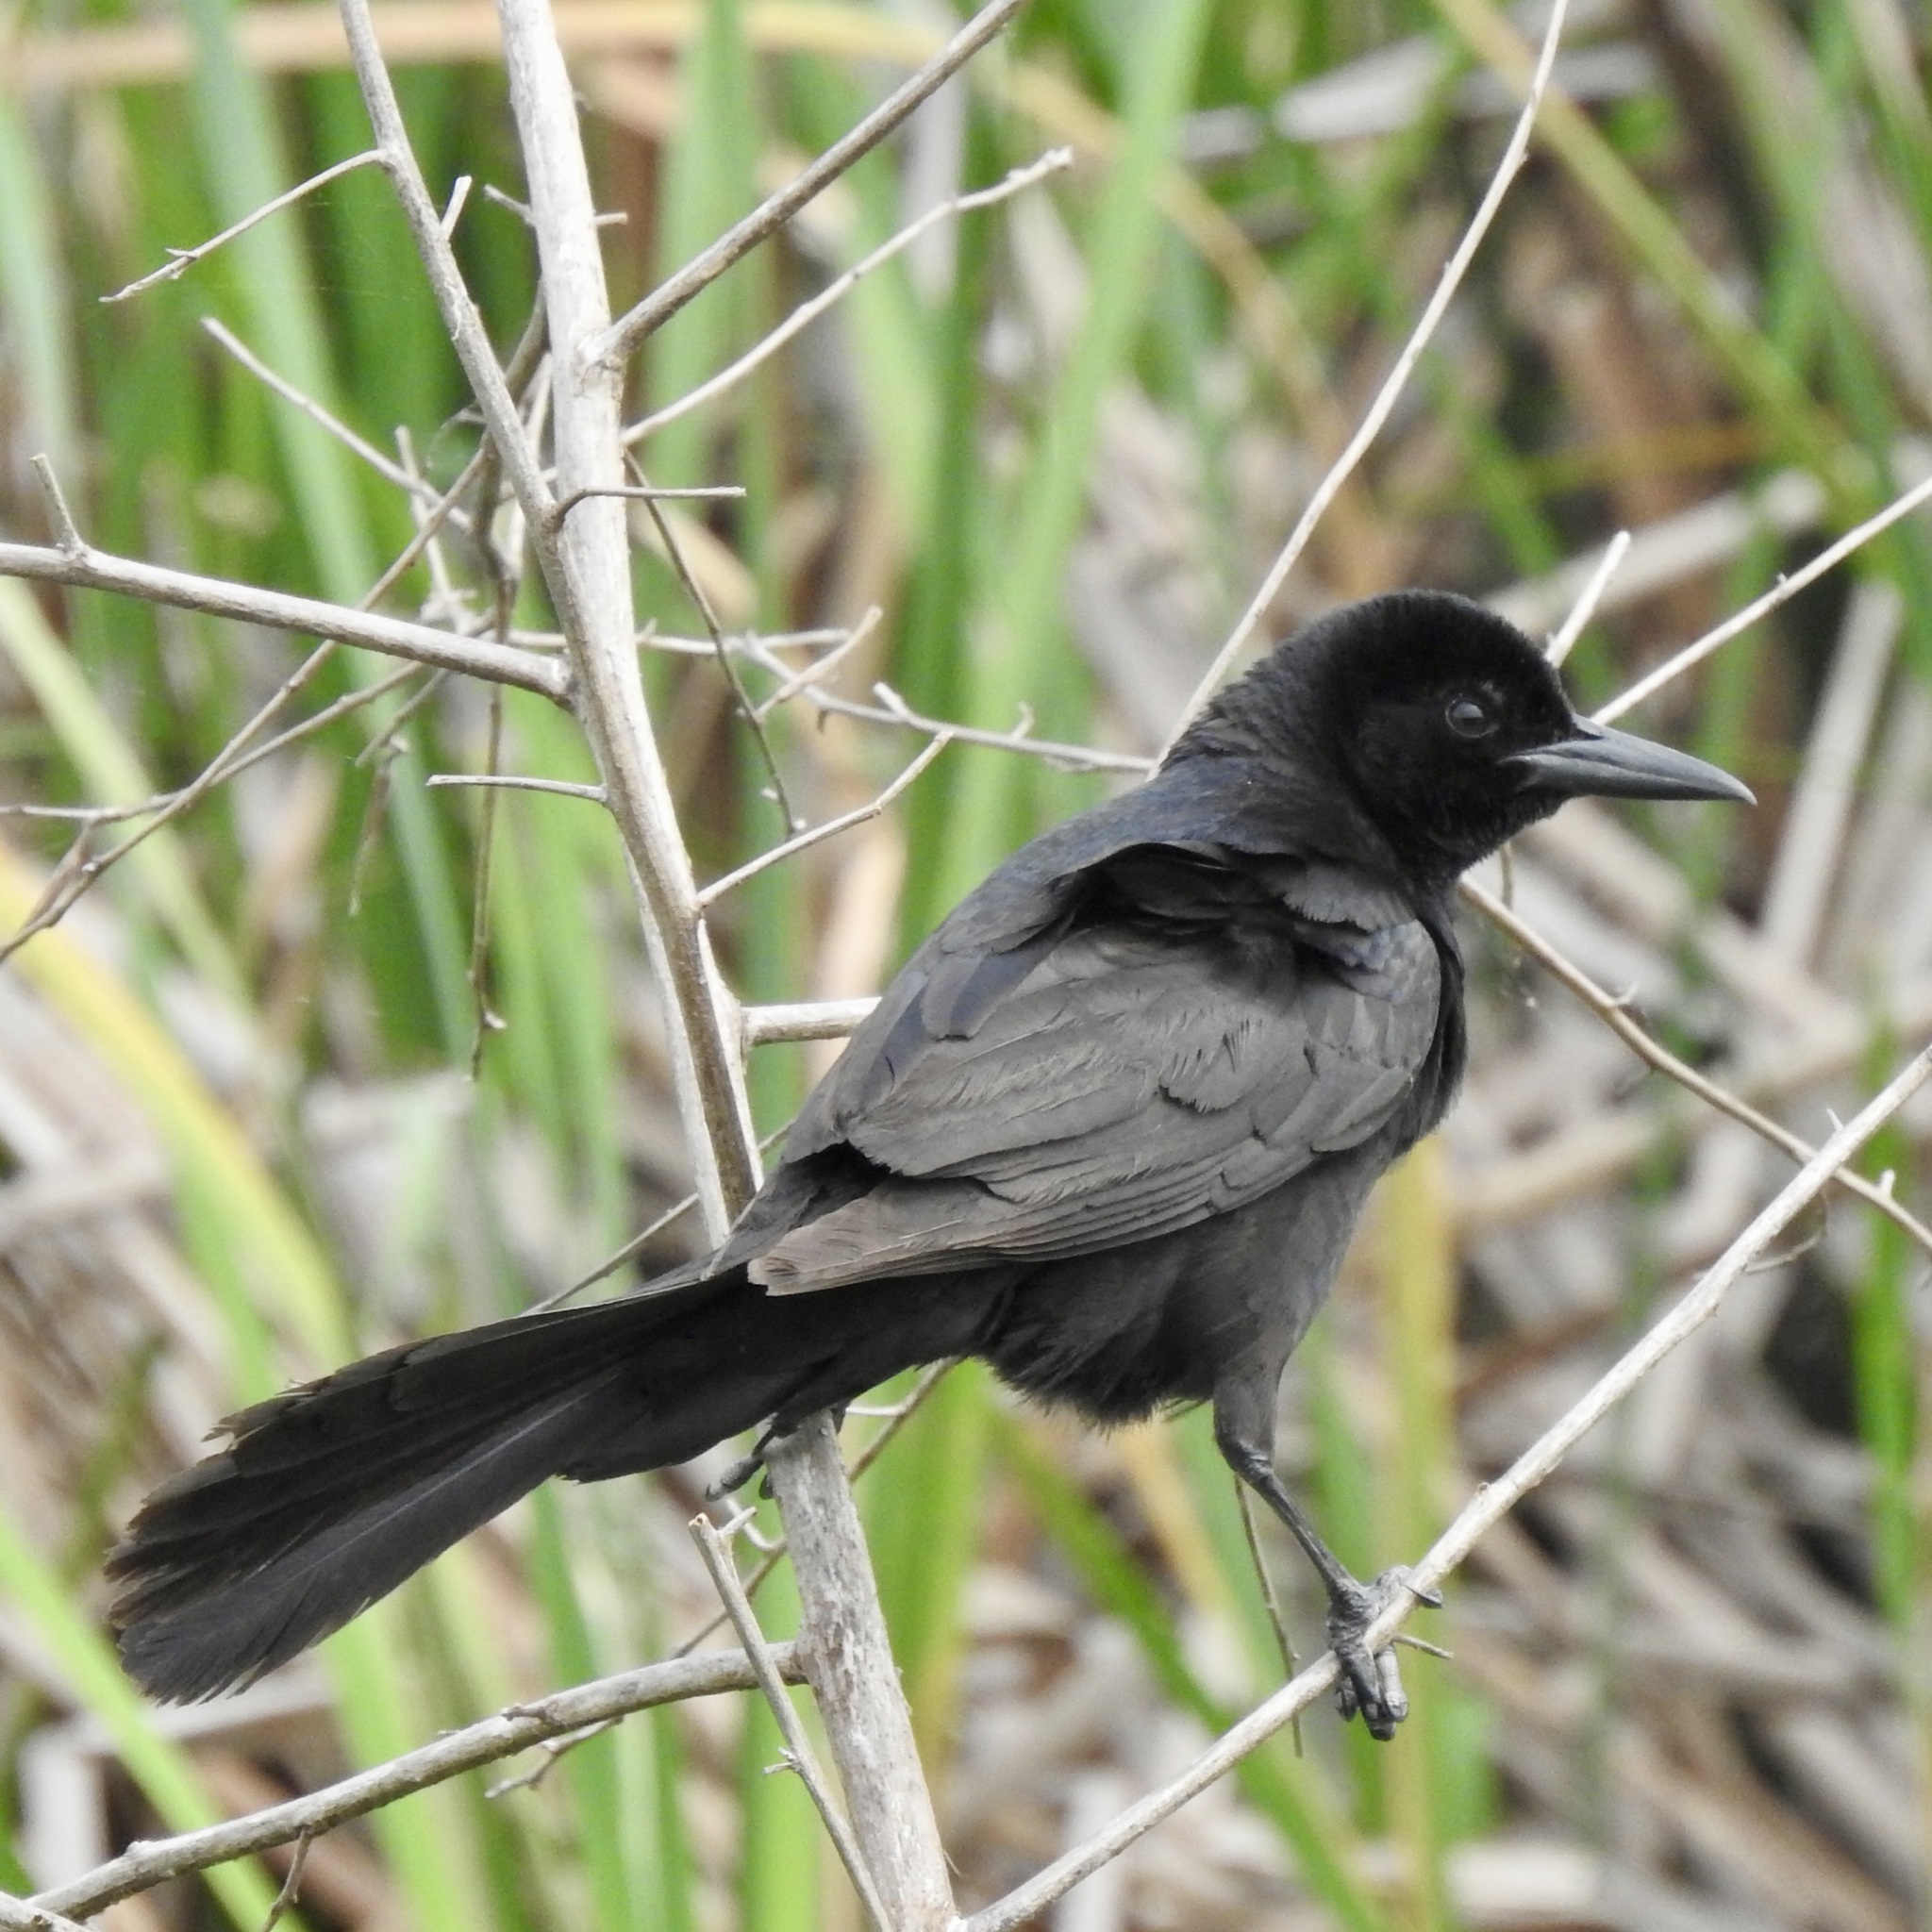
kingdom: Animalia
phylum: Chordata
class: Aves
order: Passeriformes
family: Icteridae
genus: Quiscalus
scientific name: Quiscalus major
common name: Boat-tailed grackle
